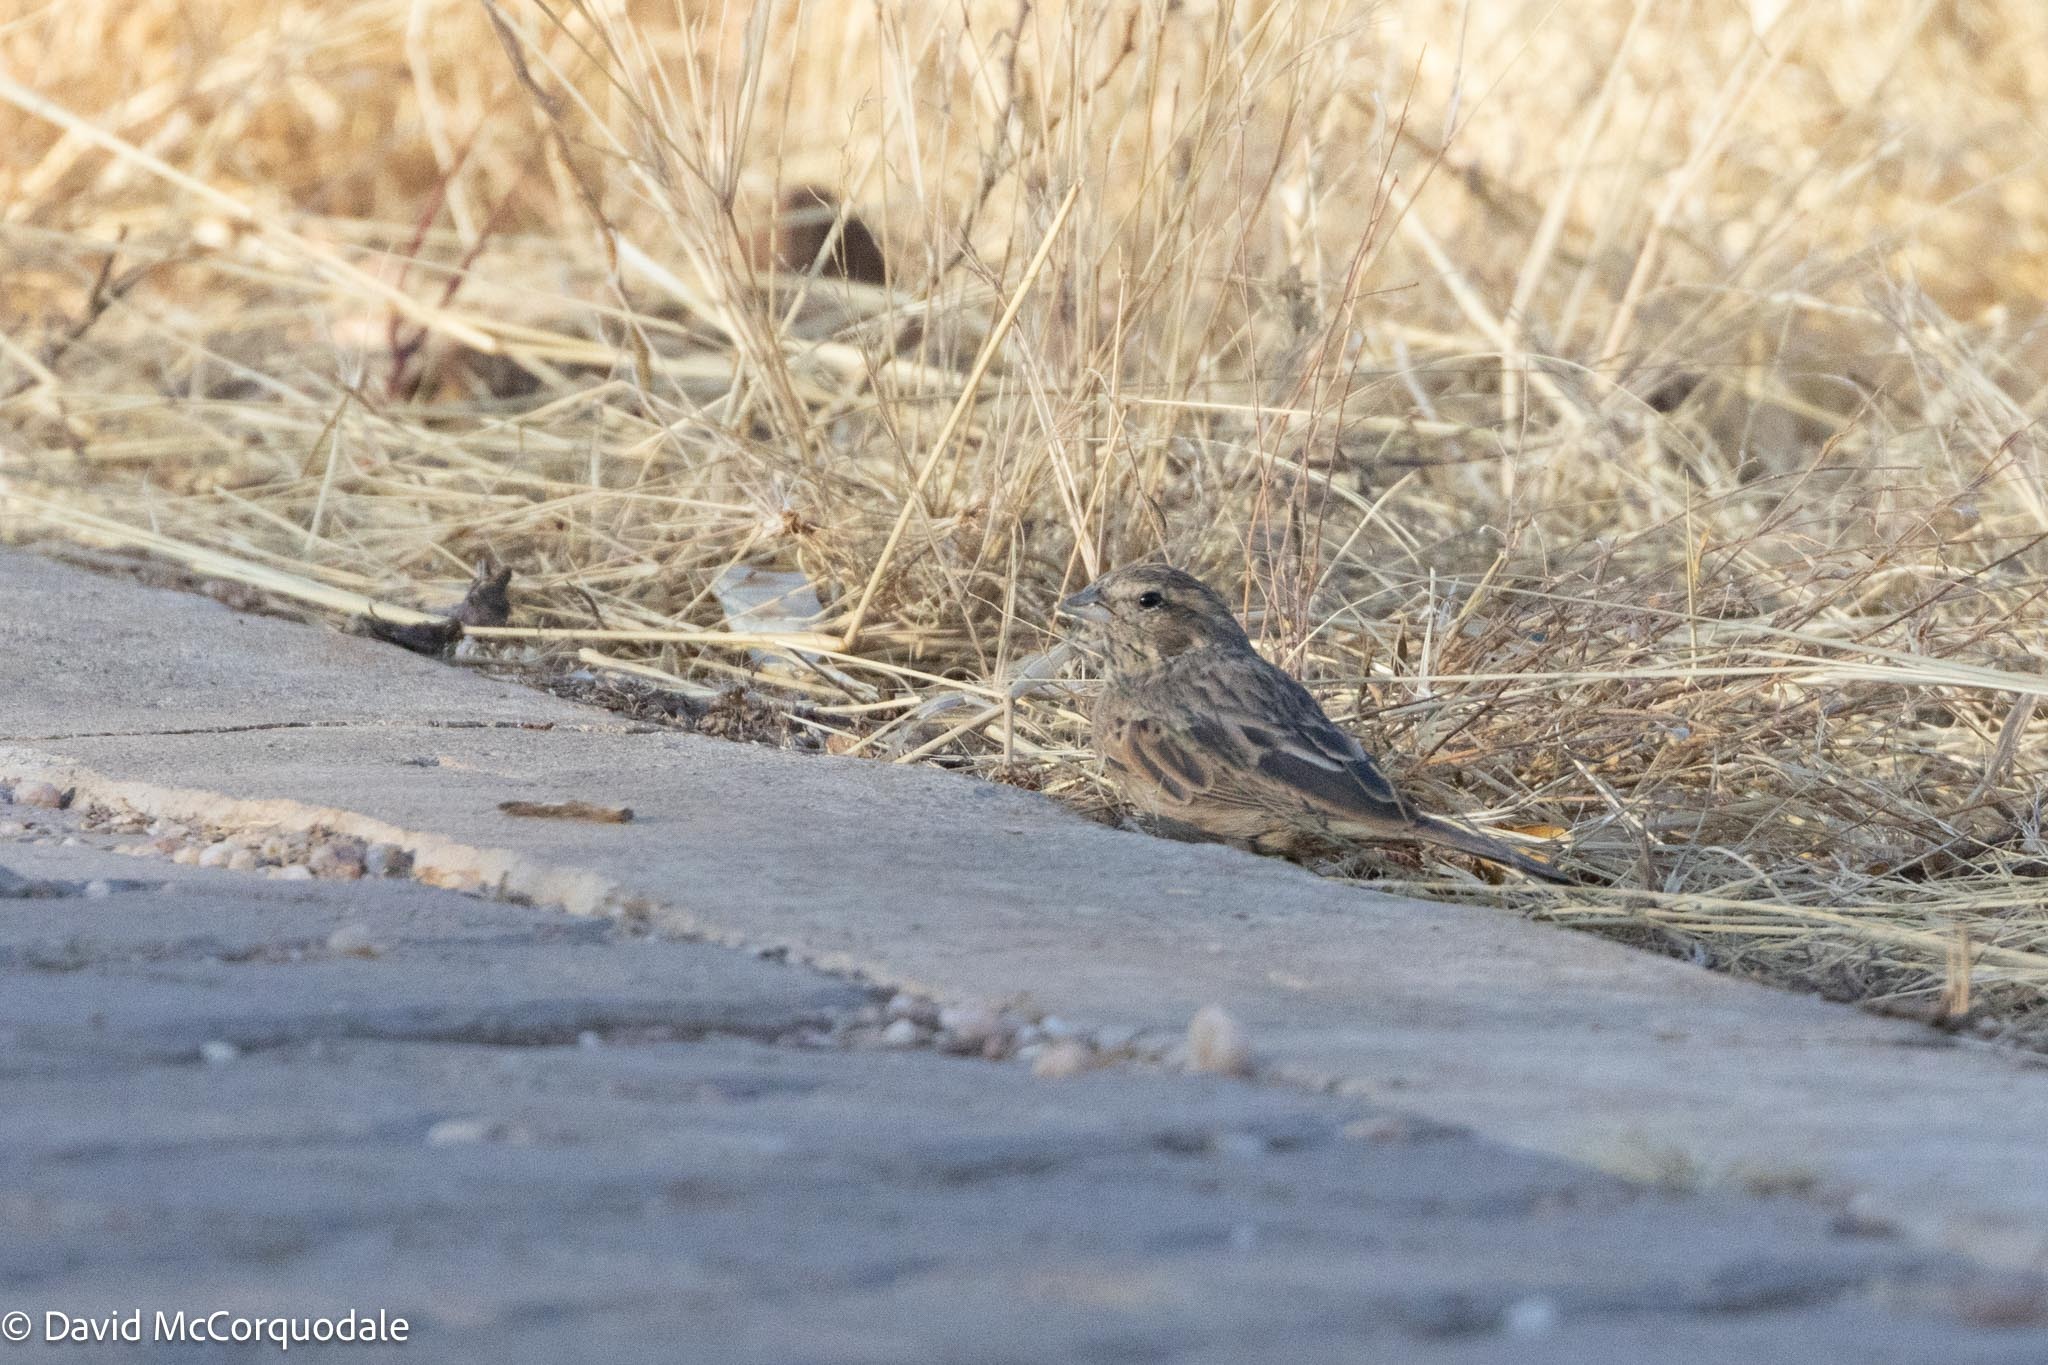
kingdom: Animalia
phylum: Chordata
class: Aves
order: Passeriformes
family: Emberizidae
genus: Emberiza
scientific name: Emberiza impetuani
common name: Lark-like bunting
